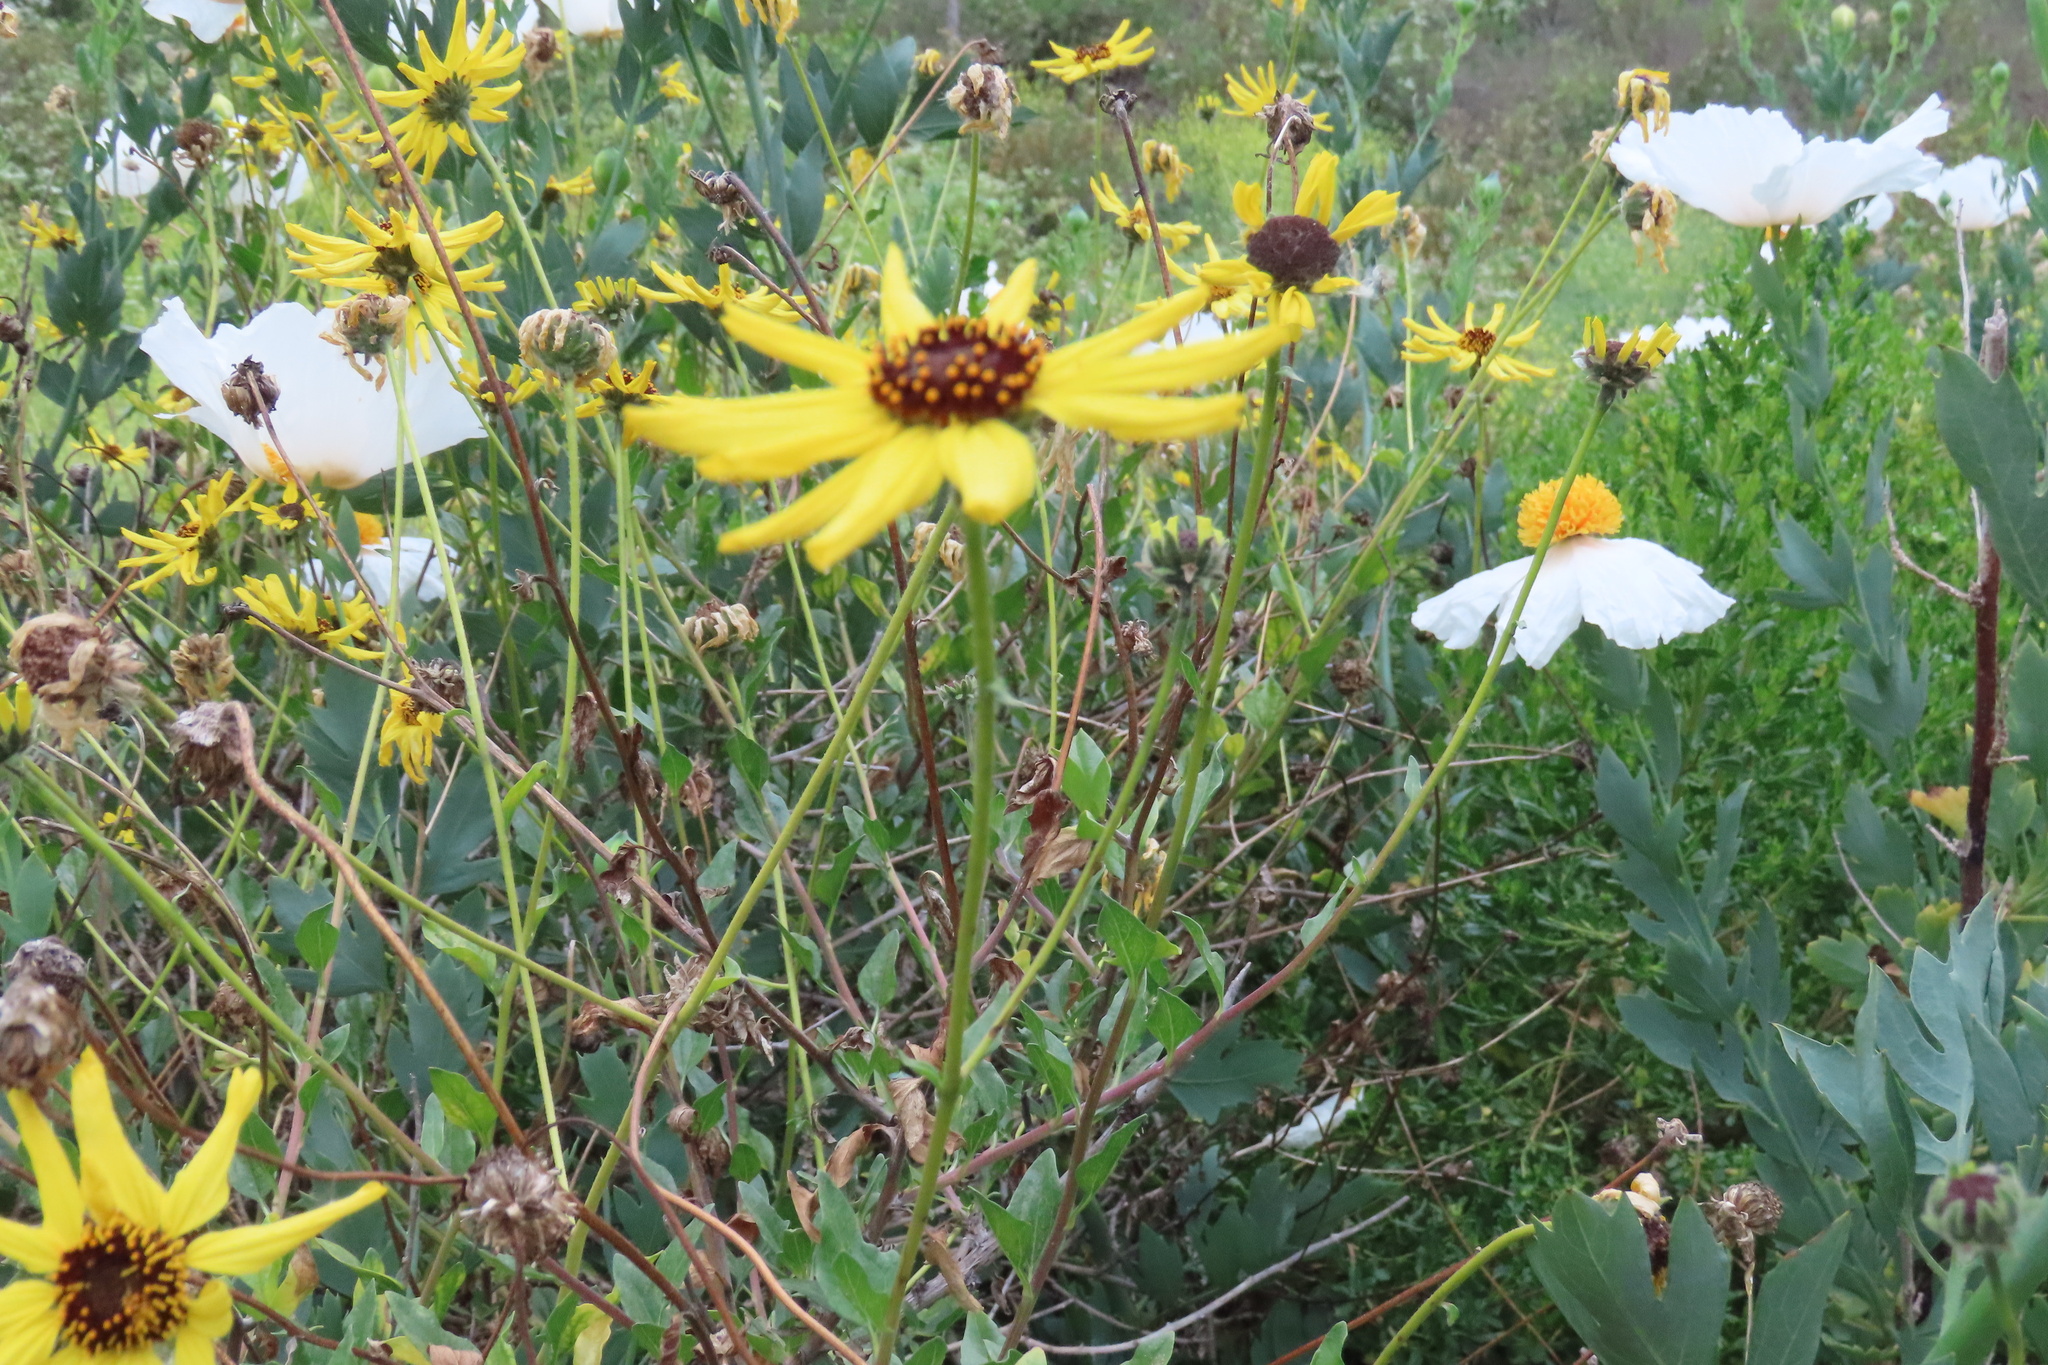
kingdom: Plantae
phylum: Tracheophyta
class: Magnoliopsida
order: Asterales
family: Asteraceae
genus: Encelia
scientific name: Encelia californica
